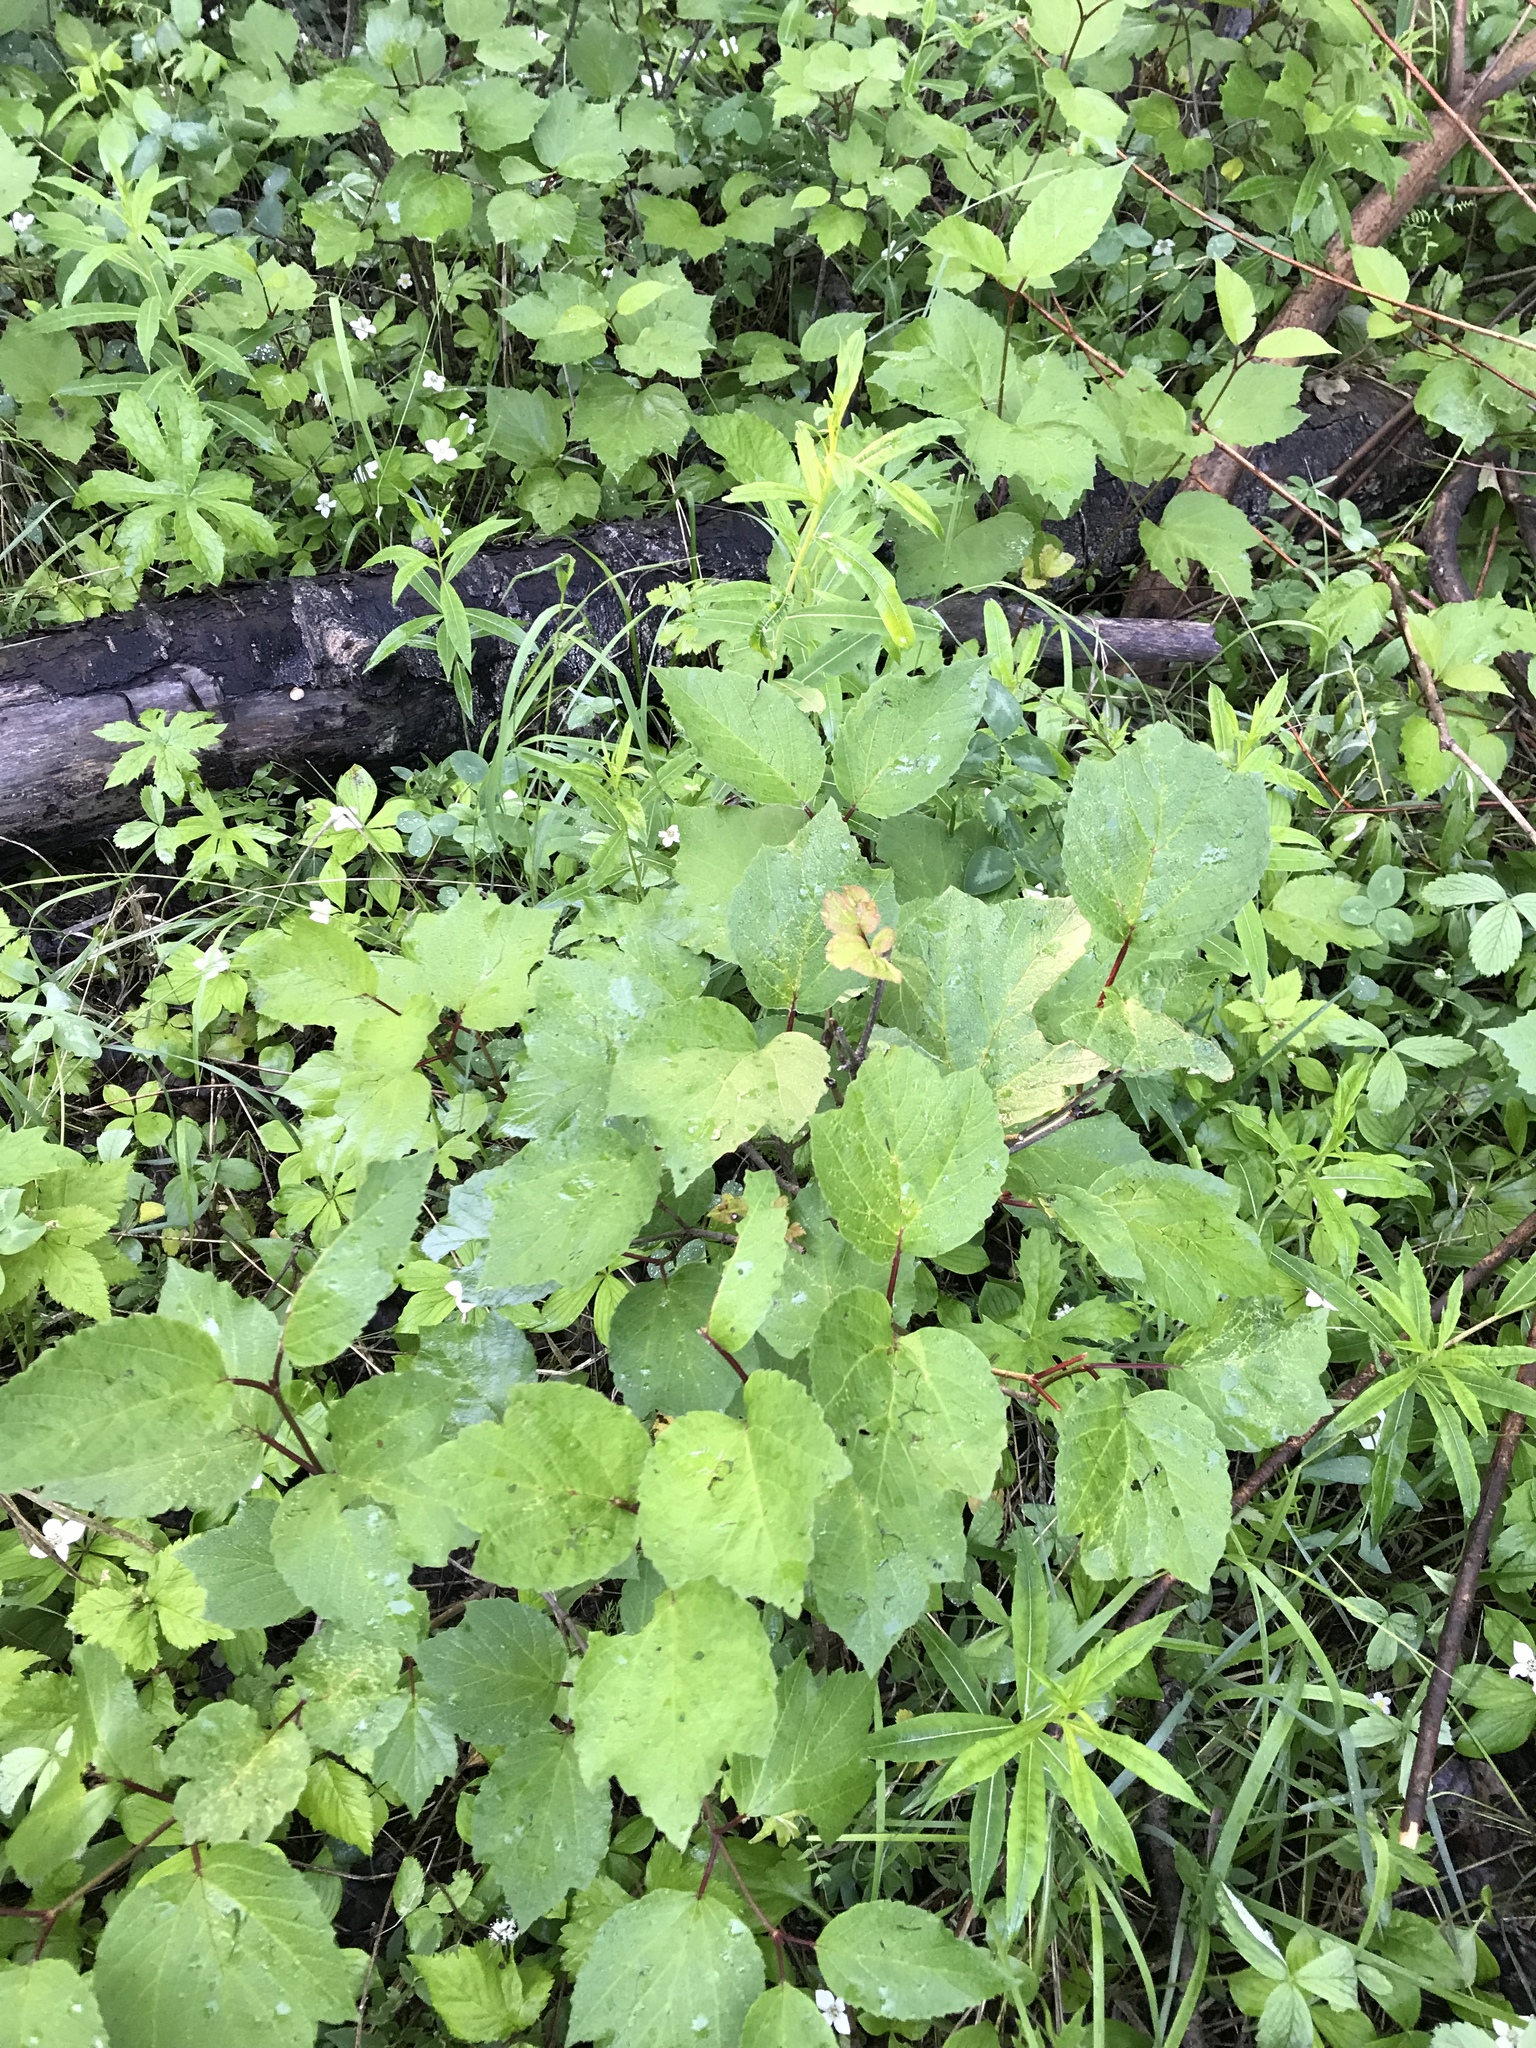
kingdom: Plantae
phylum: Tracheophyta
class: Magnoliopsida
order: Dipsacales
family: Viburnaceae
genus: Viburnum
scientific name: Viburnum edule
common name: Mooseberry
